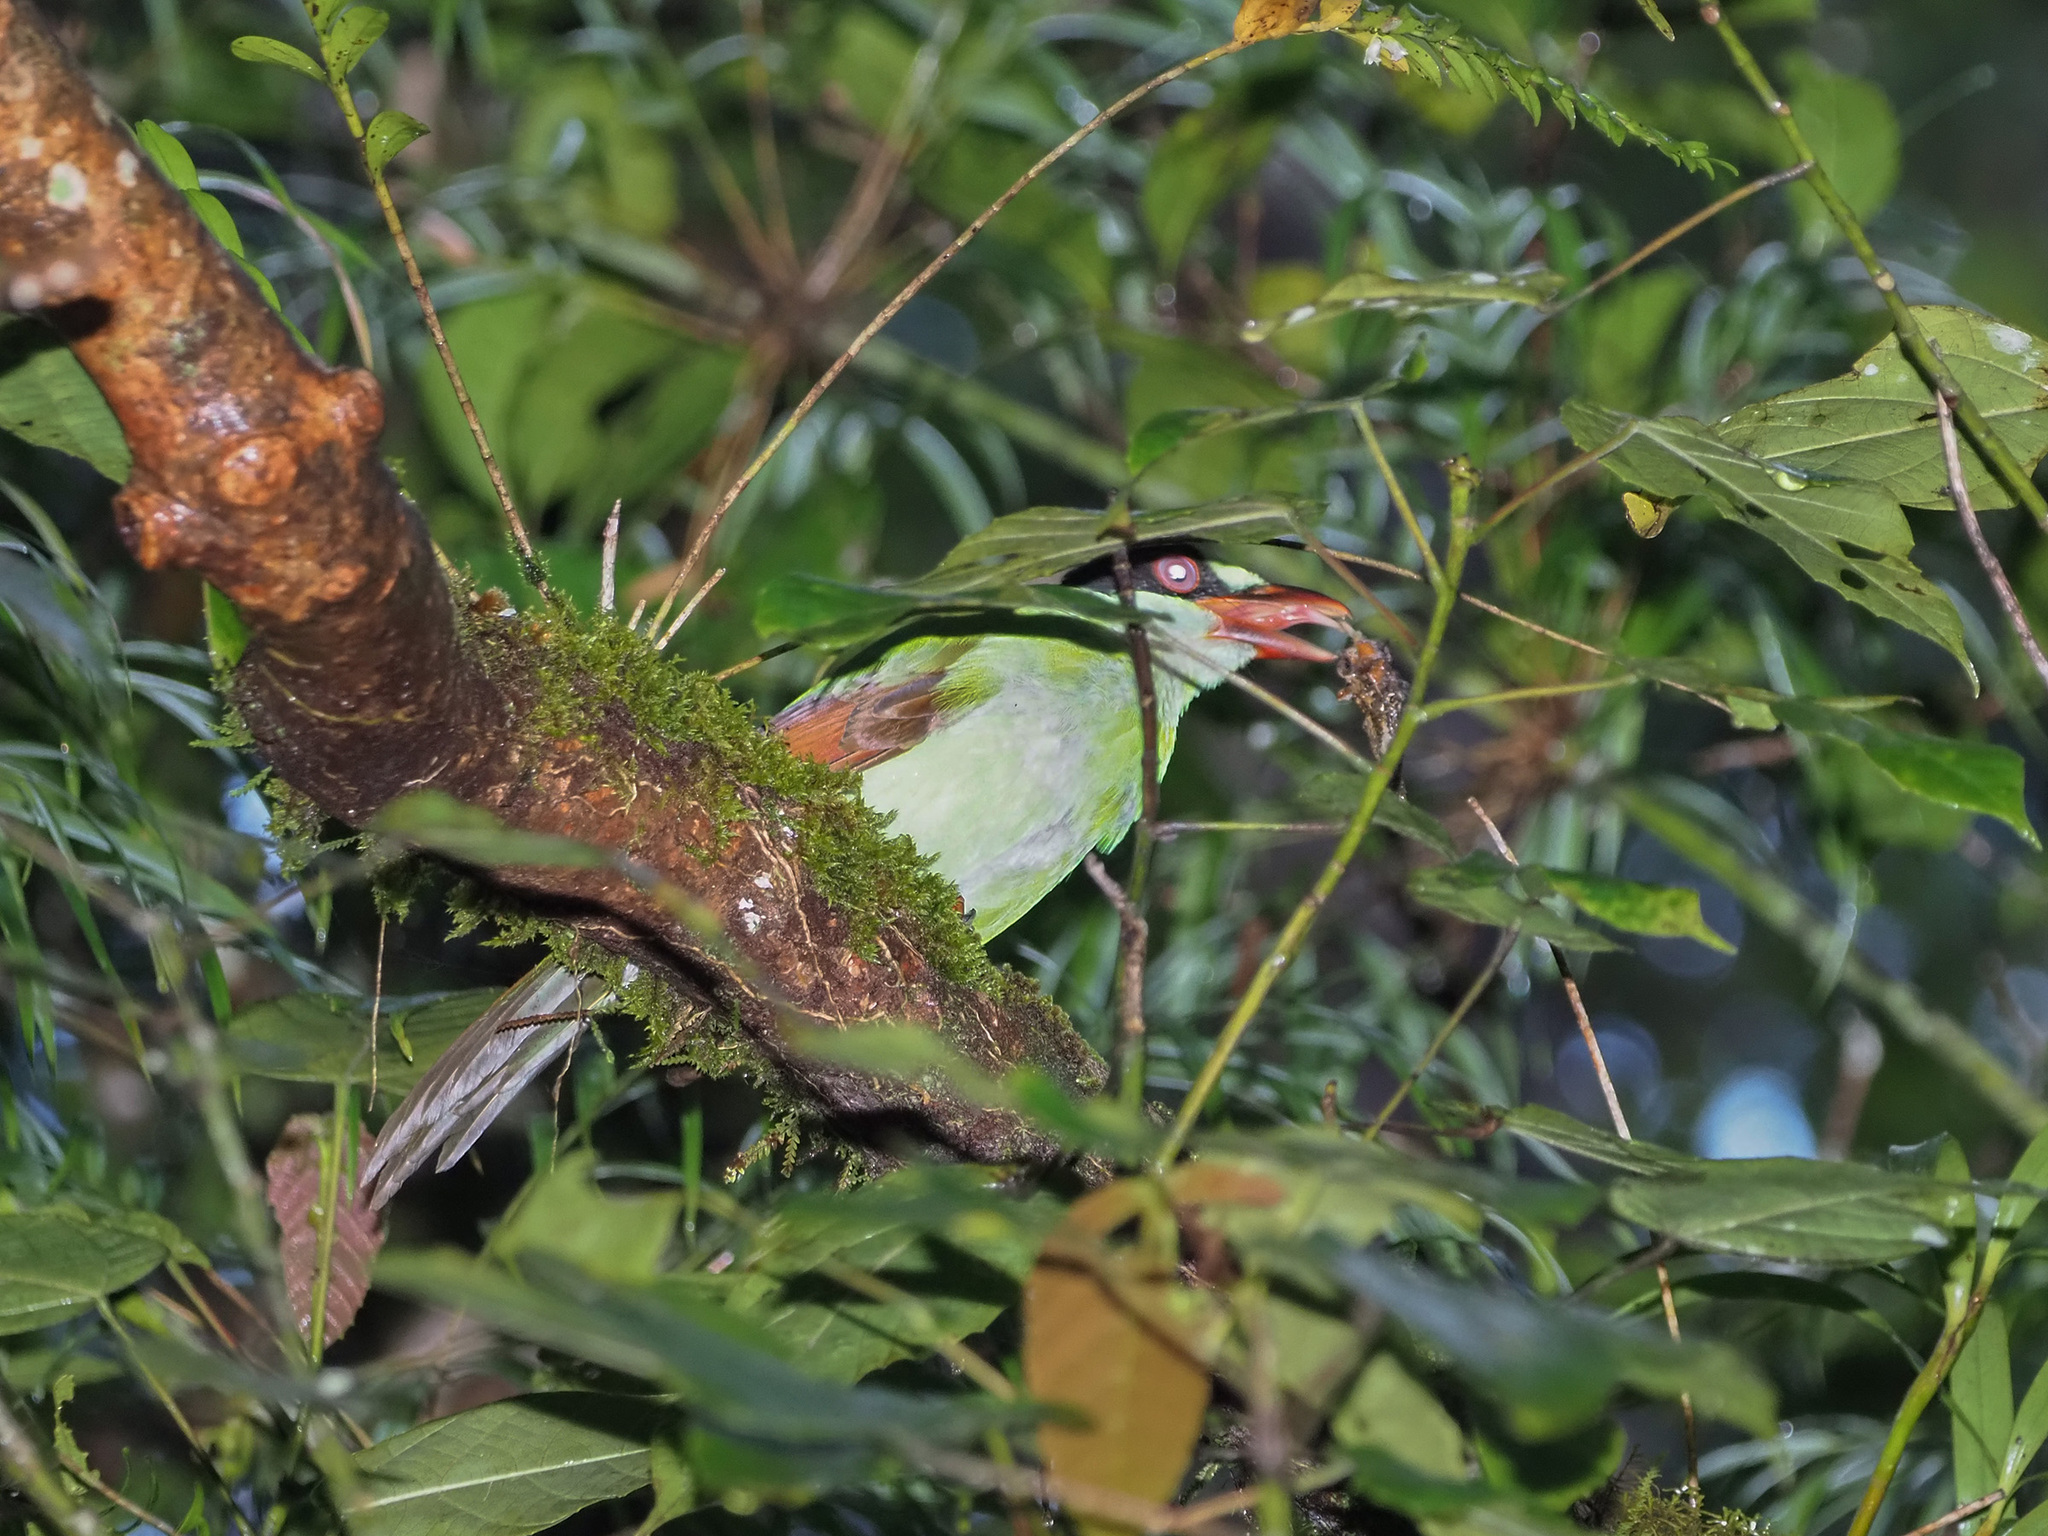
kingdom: Animalia
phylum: Chordata
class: Aves
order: Passeriformes
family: Corvidae
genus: Cissa
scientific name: Cissa jefferyi
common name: Bornean green magpie
